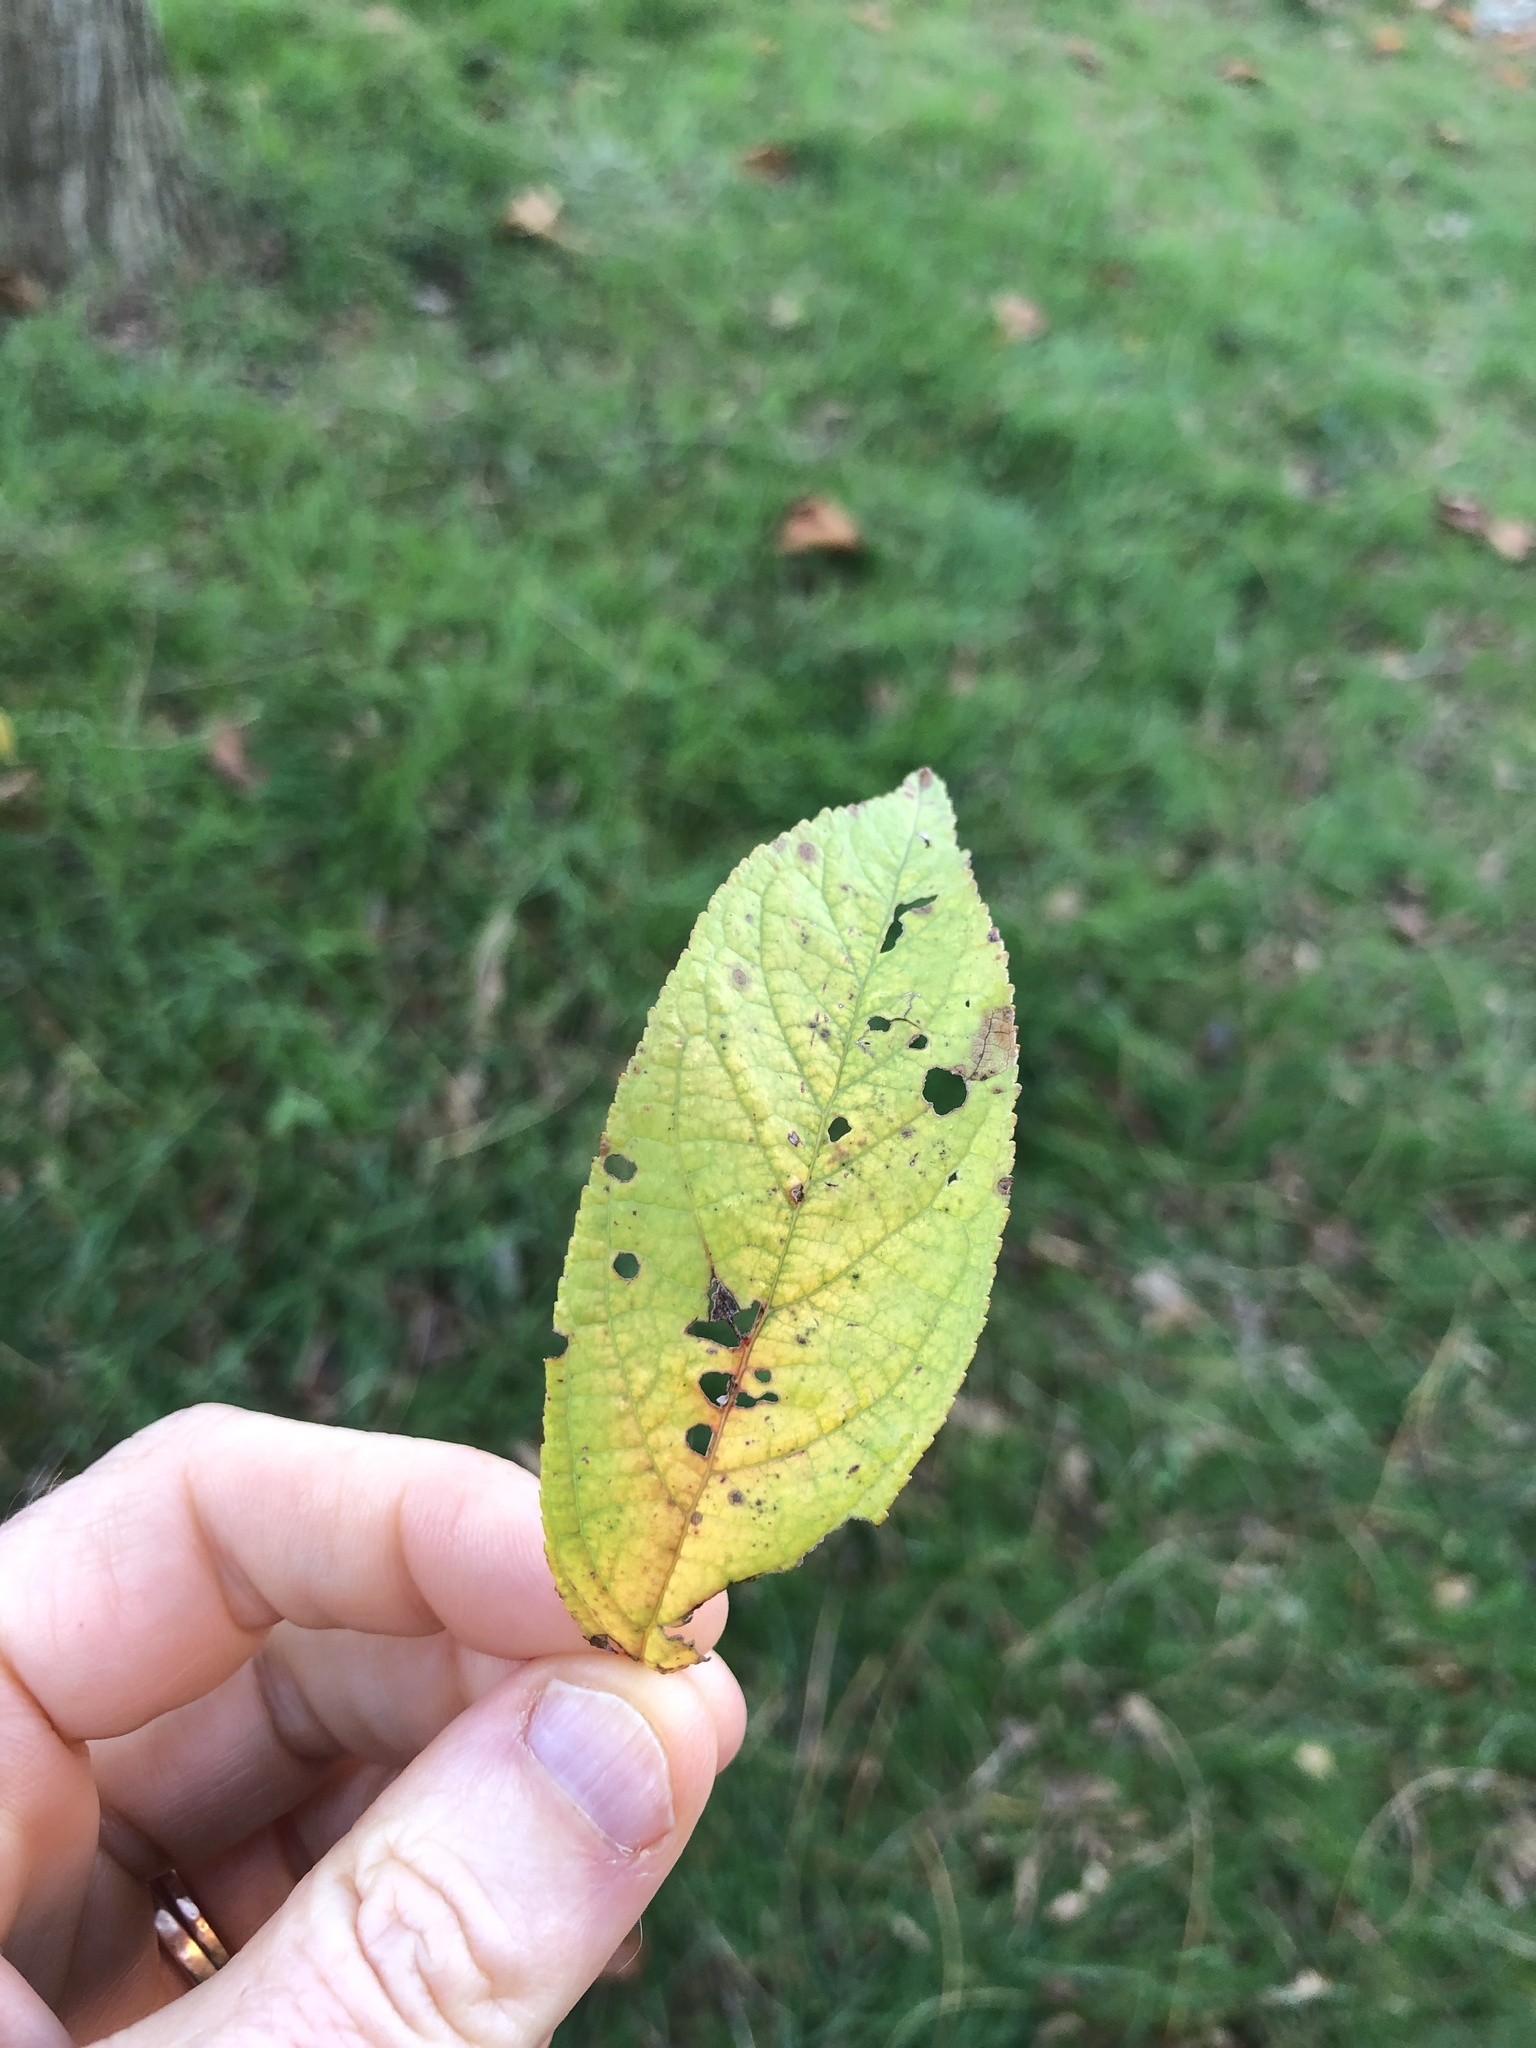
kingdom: Plantae
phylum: Tracheophyta
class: Magnoliopsida
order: Fabales
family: Fabaceae
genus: Robinia
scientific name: Robinia pseudoacacia
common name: Black locust
